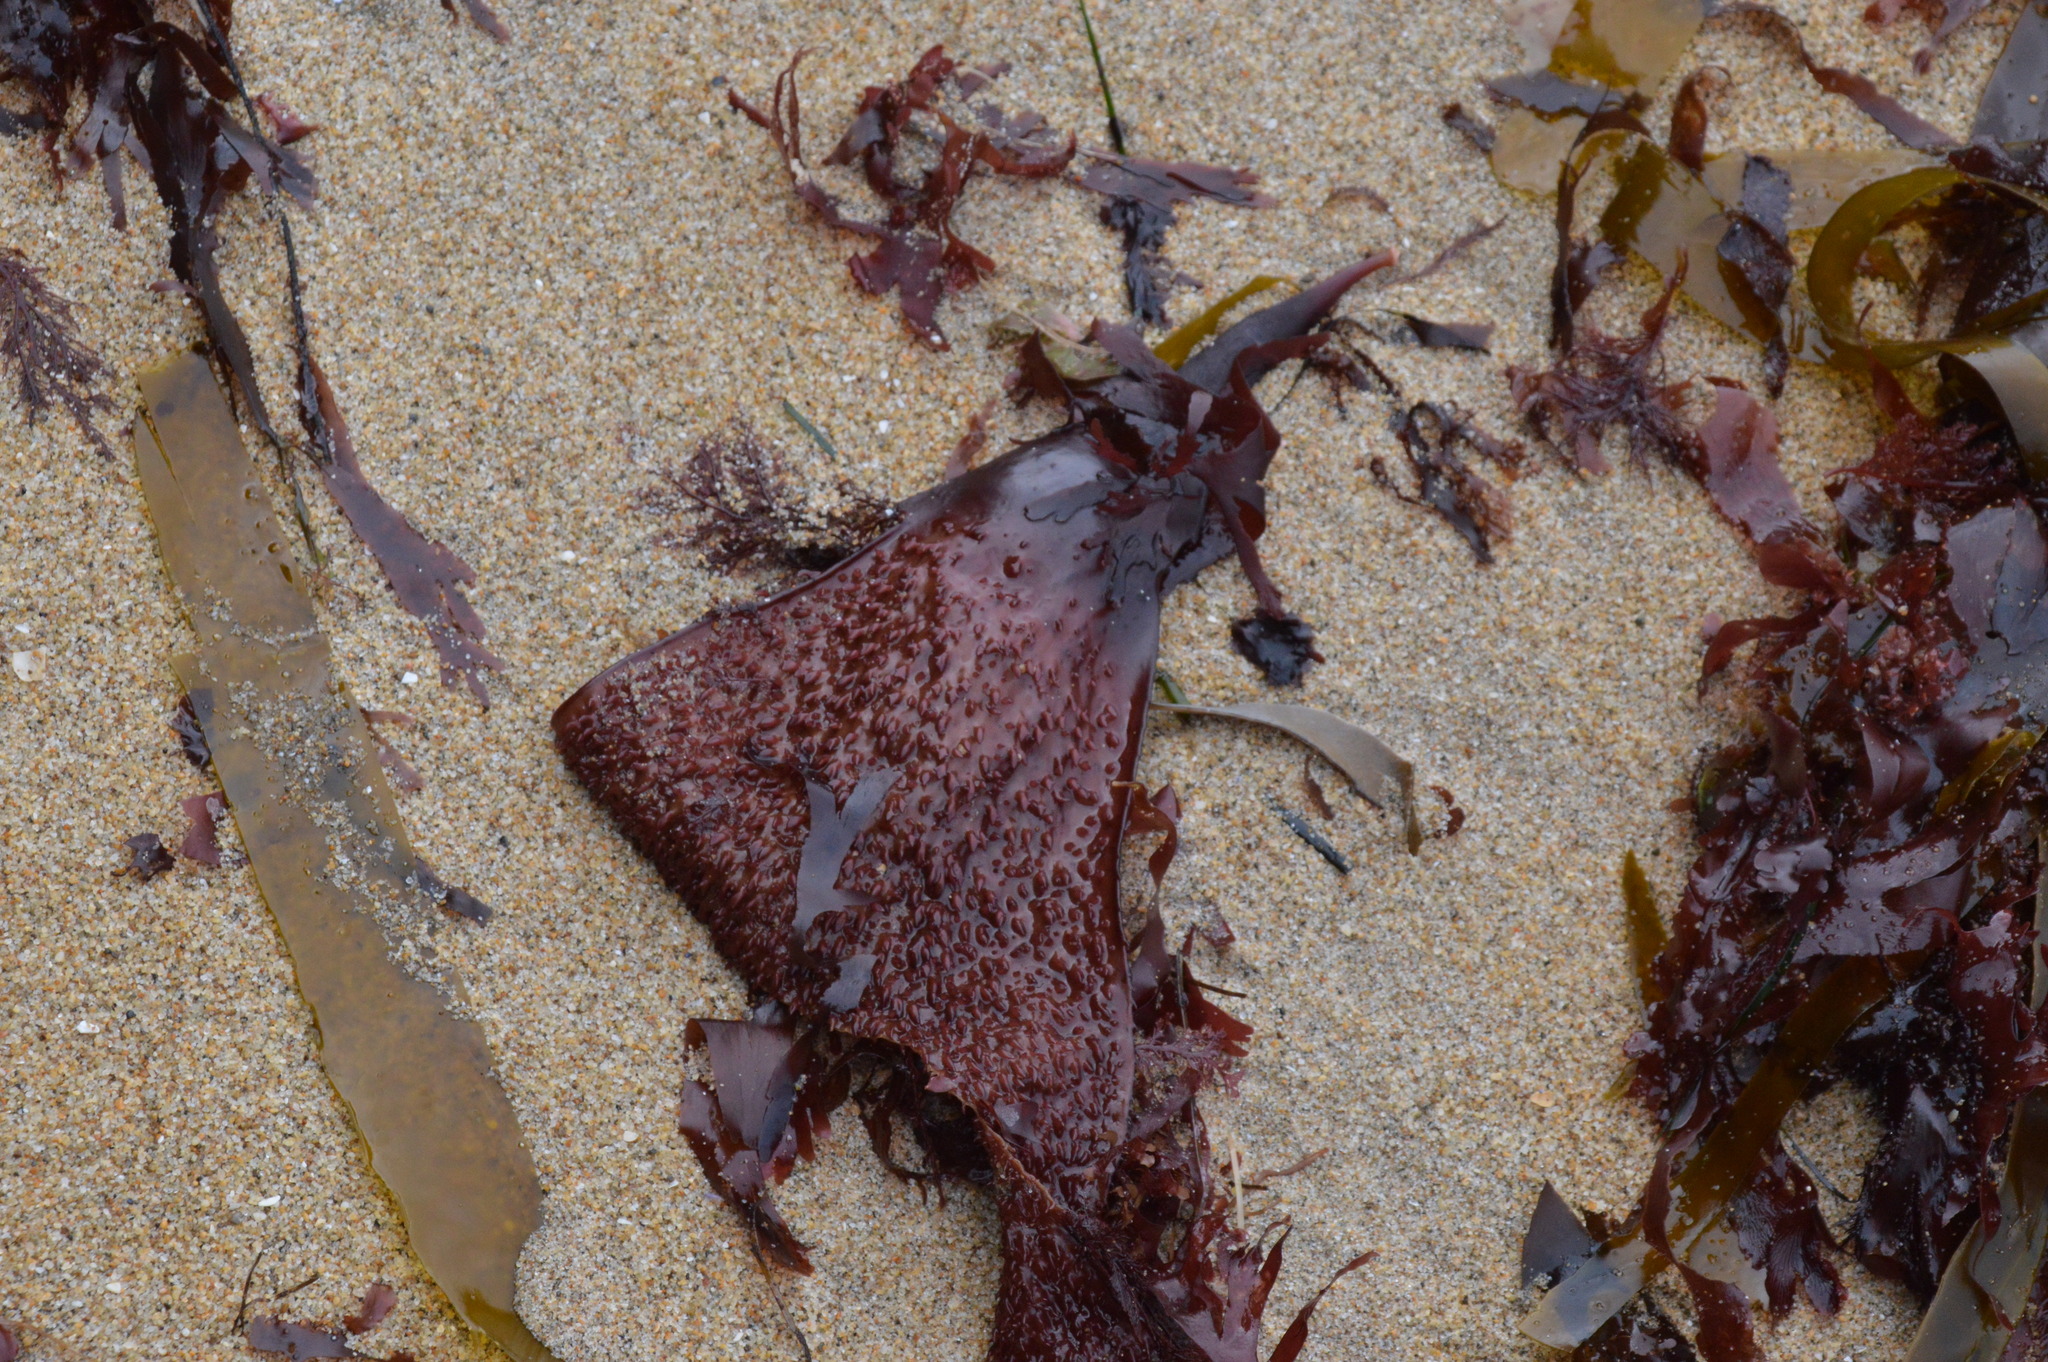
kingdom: Plantae
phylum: Rhodophyta
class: Florideophyceae
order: Gigartinales
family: Gigartinaceae
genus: Chondracanthus
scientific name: Chondracanthus exasperatus
